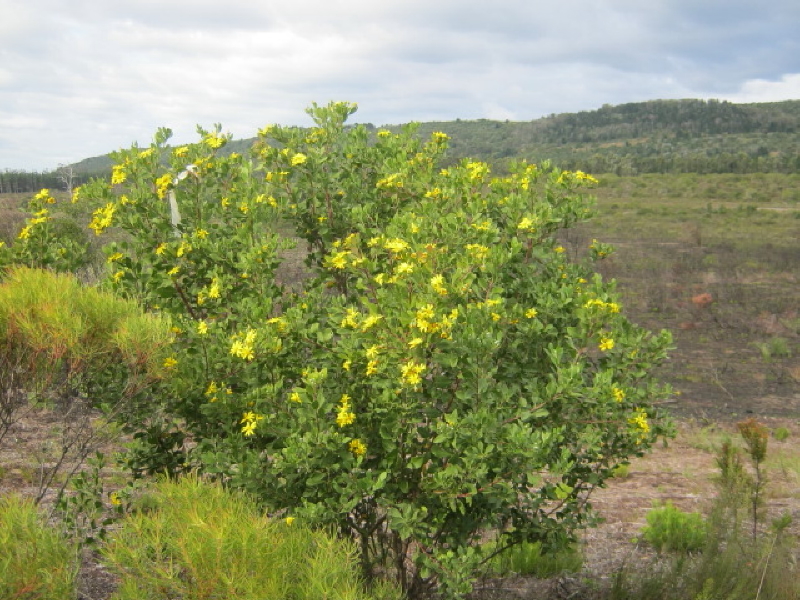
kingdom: Plantae
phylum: Tracheophyta
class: Magnoliopsida
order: Asterales
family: Asteraceae
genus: Osteospermum
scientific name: Osteospermum moniliferum
